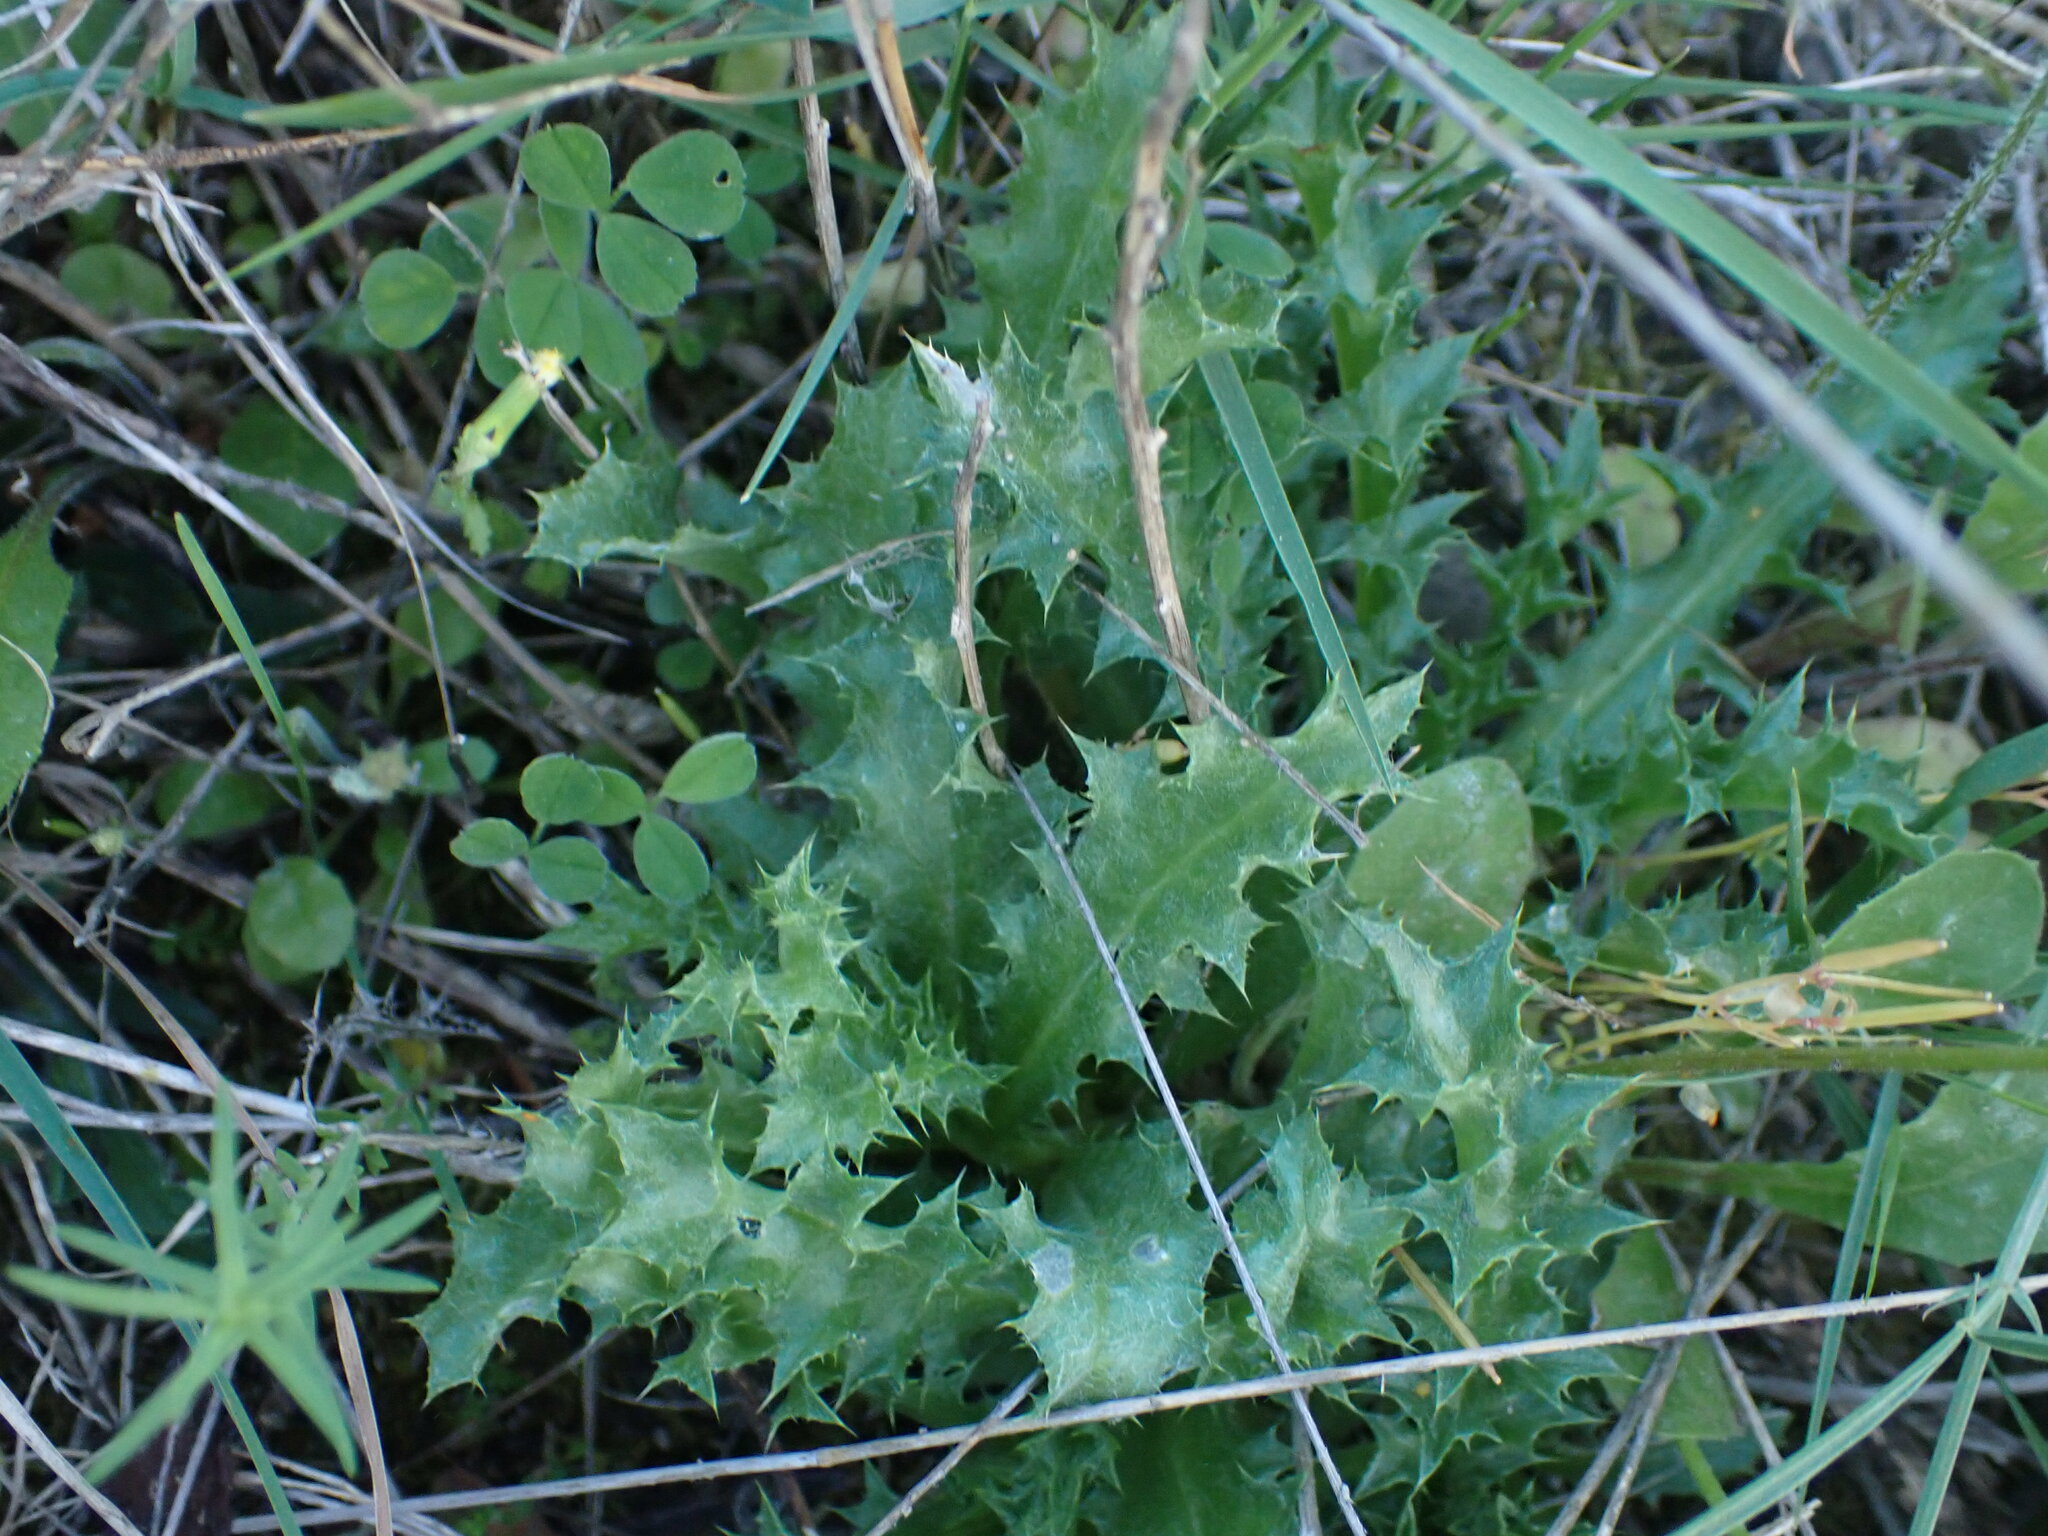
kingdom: Plantae
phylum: Tracheophyta
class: Magnoliopsida
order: Asterales
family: Asteraceae
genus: Carlina
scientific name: Carlina hispanica
